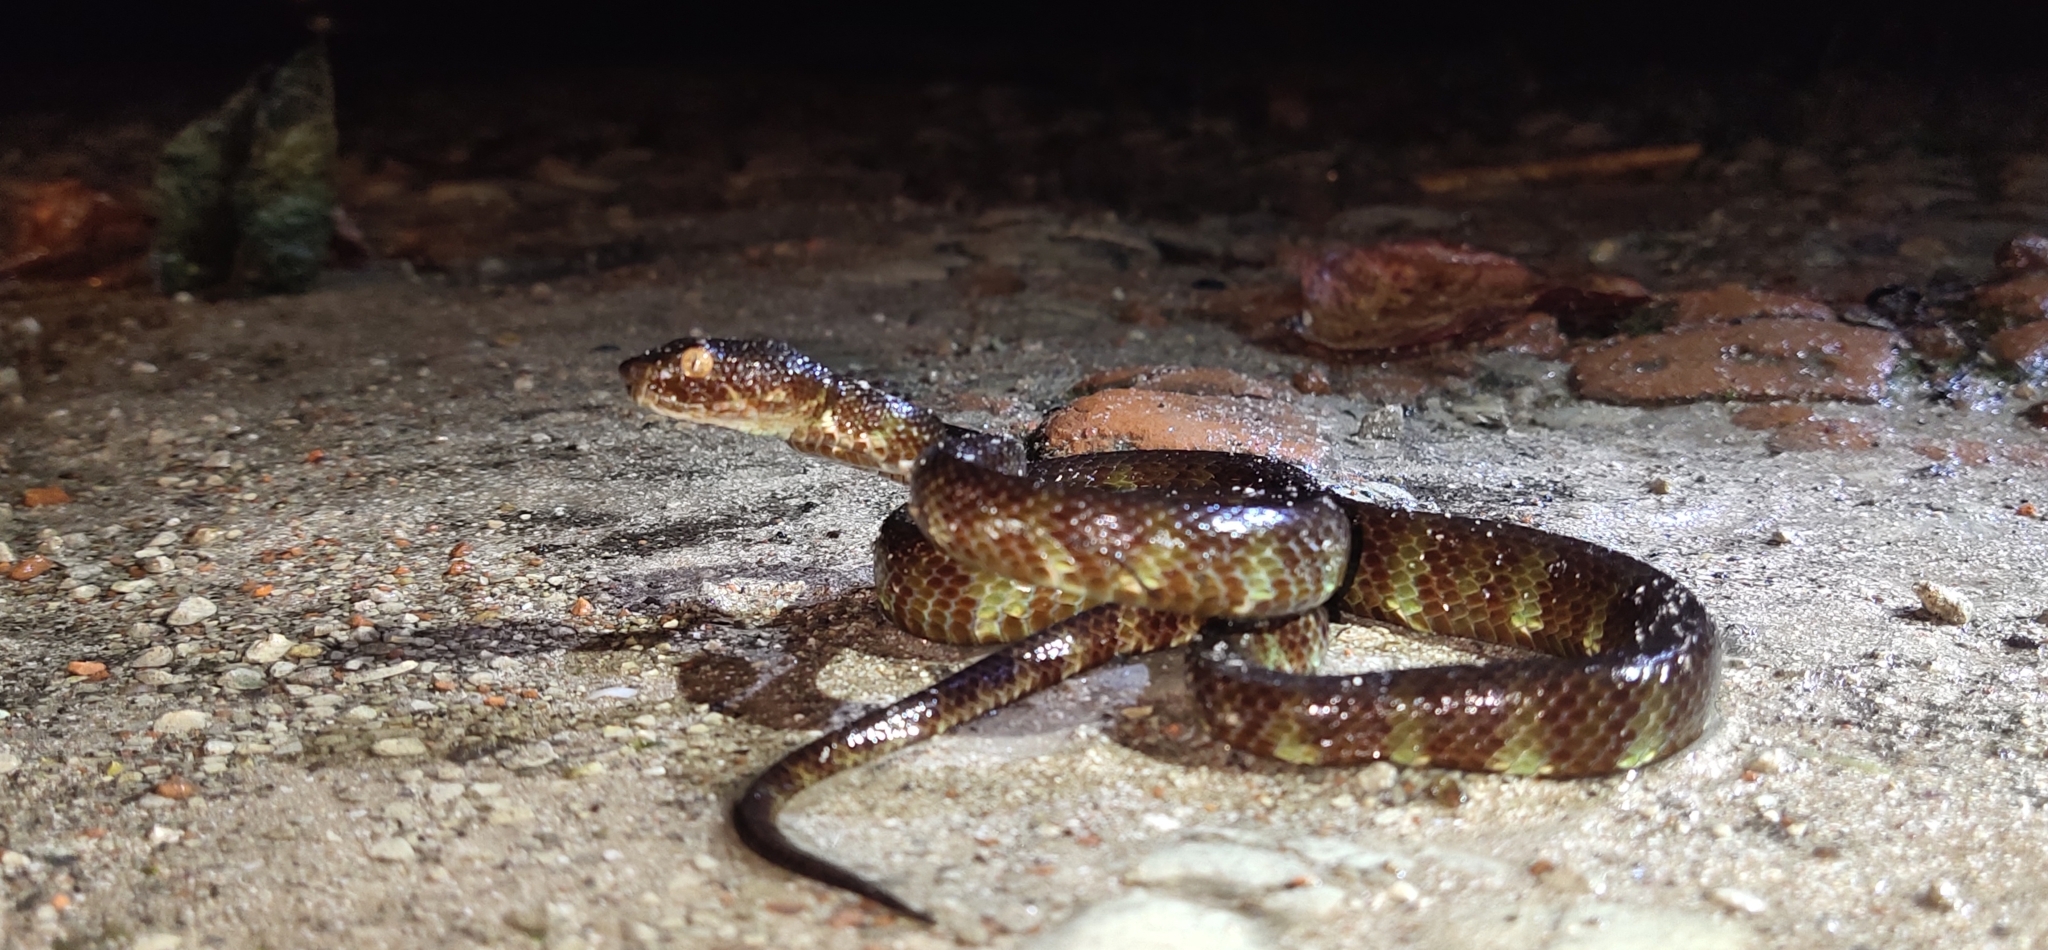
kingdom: Animalia
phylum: Chordata
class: Squamata
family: Viperidae
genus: Trimeresurus
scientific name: Trimeresurus andersonii
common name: Andaman pit viper
